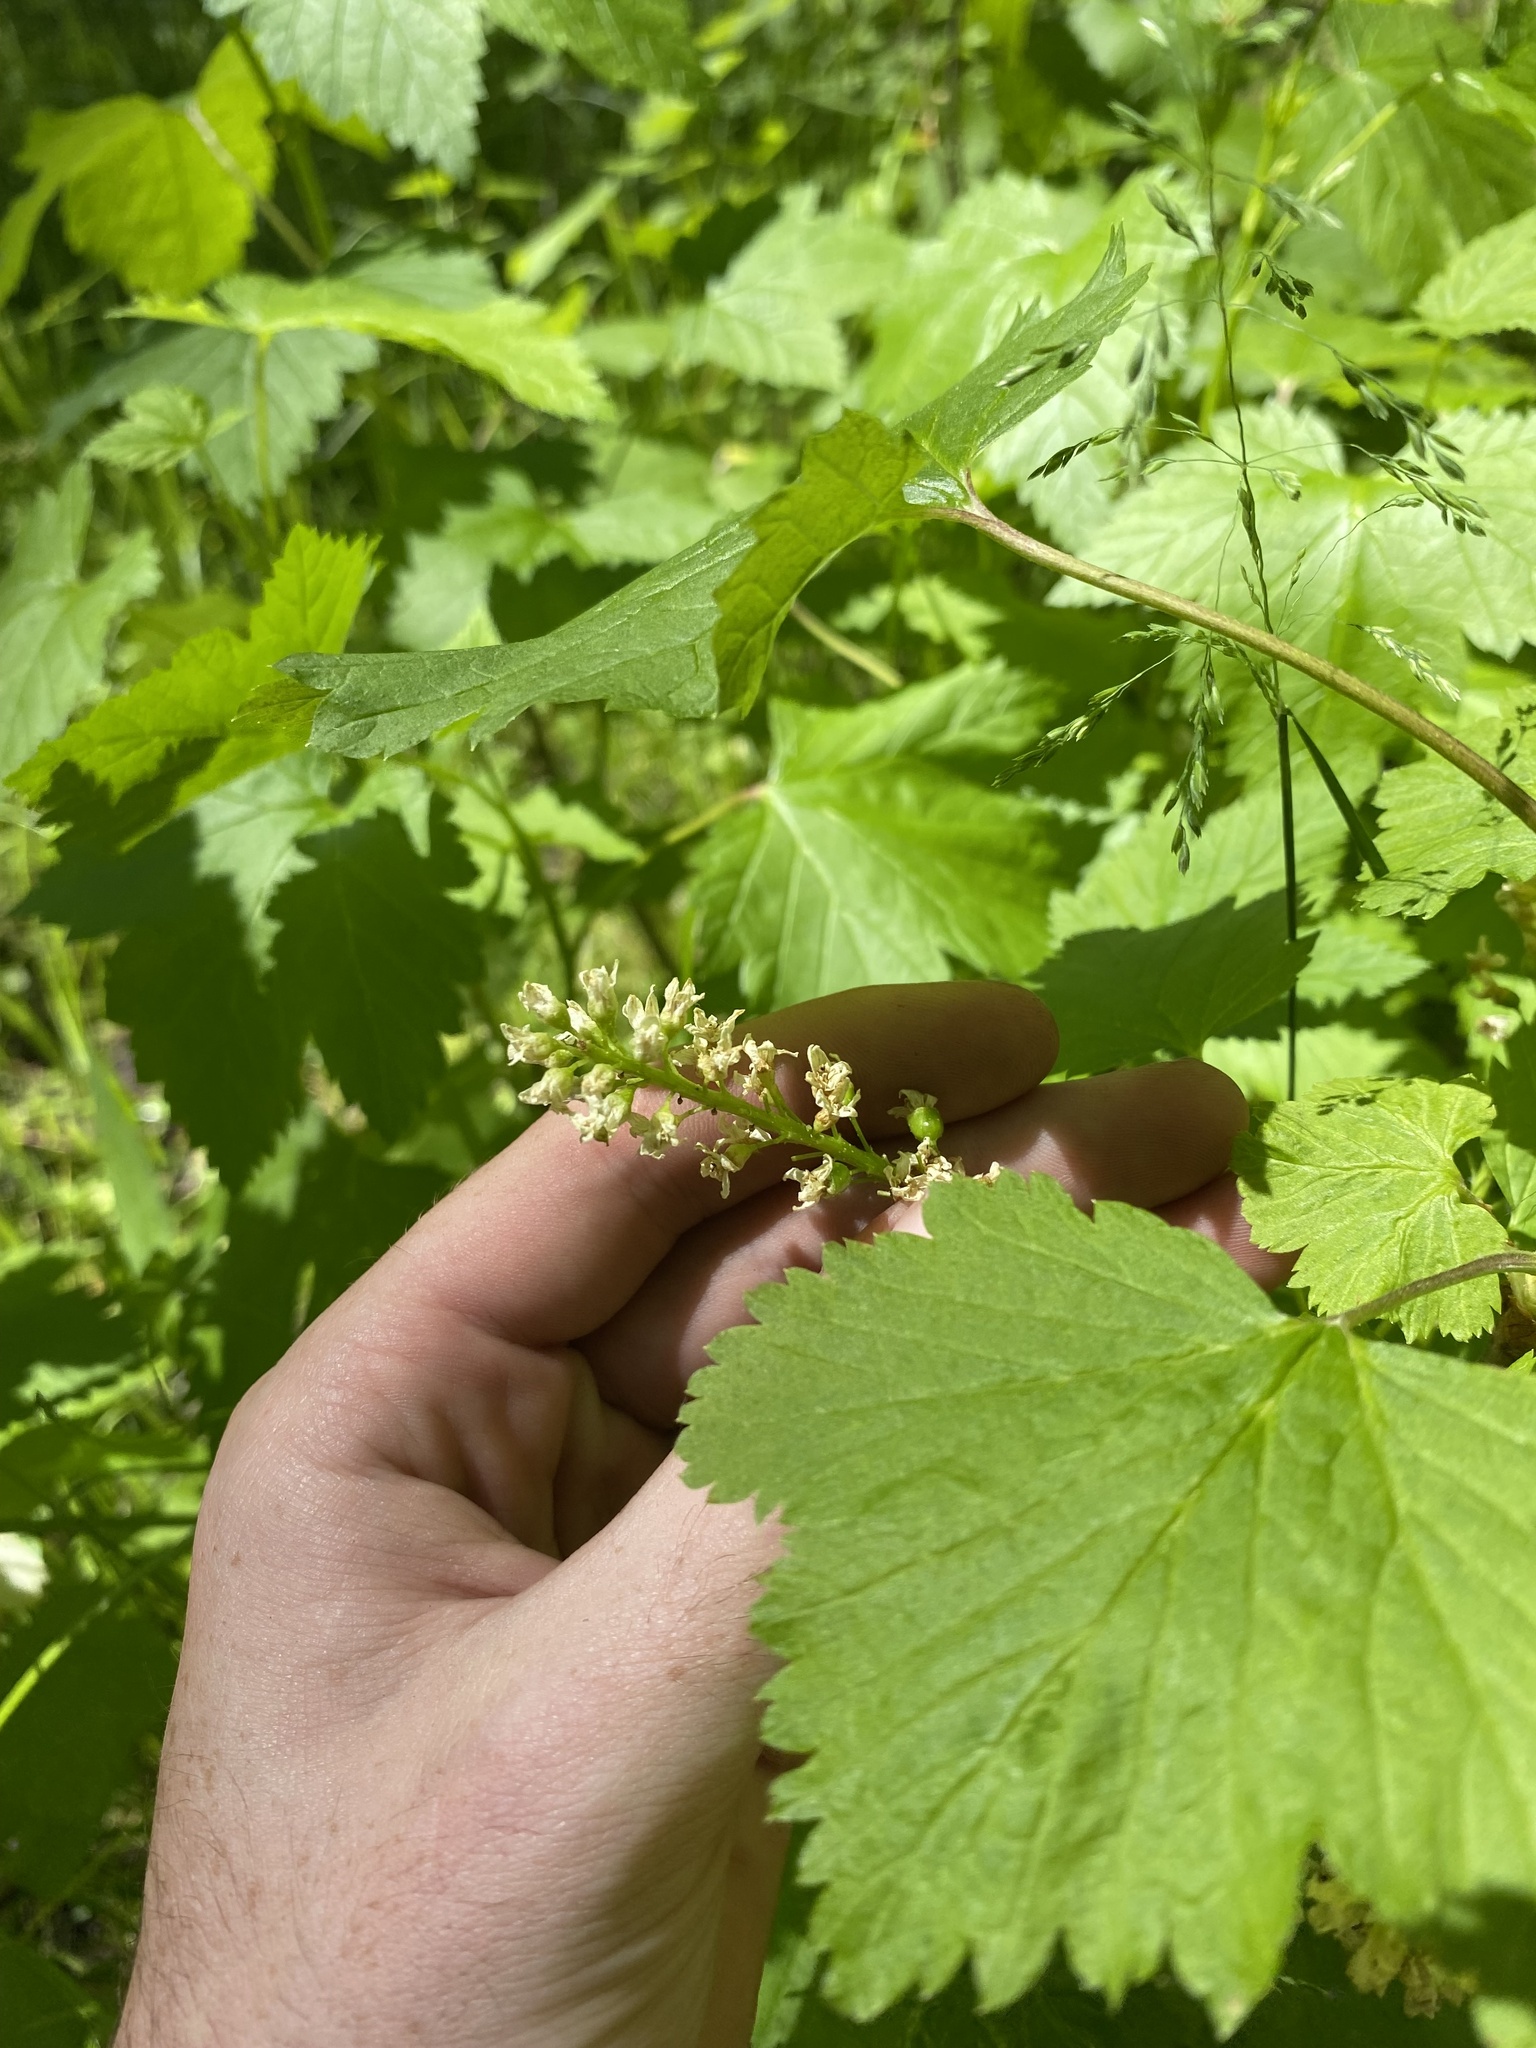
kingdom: Plantae
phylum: Tracheophyta
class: Magnoliopsida
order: Saxifragales
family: Grossulariaceae
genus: Ribes
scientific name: Ribes hudsonianum
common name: Northern black currant
